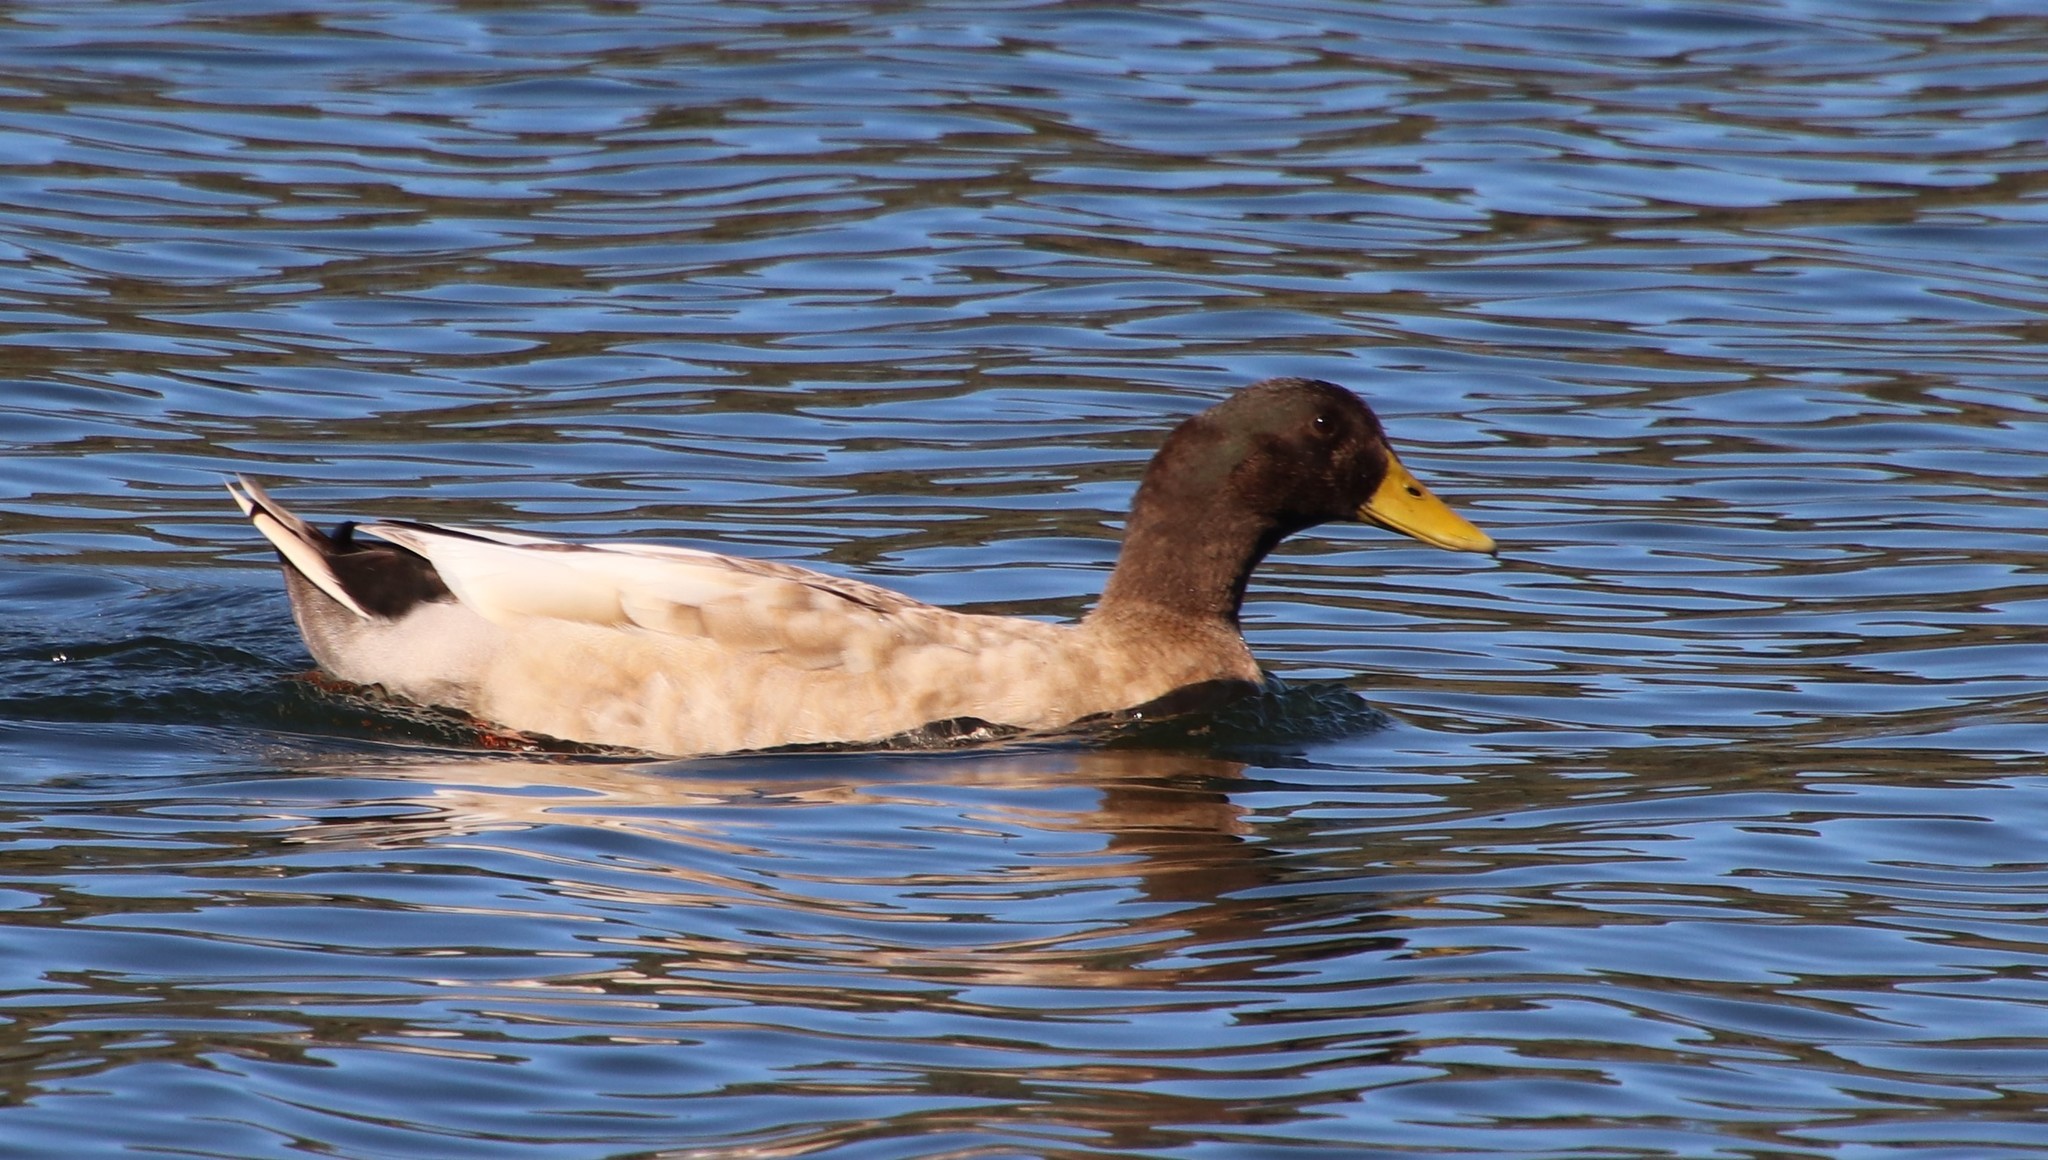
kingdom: Animalia
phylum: Chordata
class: Aves
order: Anseriformes
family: Anatidae
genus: Anas
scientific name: Anas platyrhynchos
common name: Mallard
